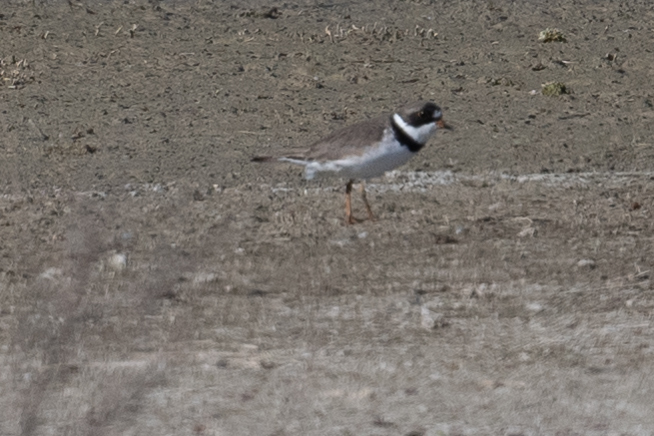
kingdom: Animalia
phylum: Chordata
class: Aves
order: Charadriiformes
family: Charadriidae
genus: Charadrius
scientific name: Charadrius semipalmatus
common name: Semipalmated plover
